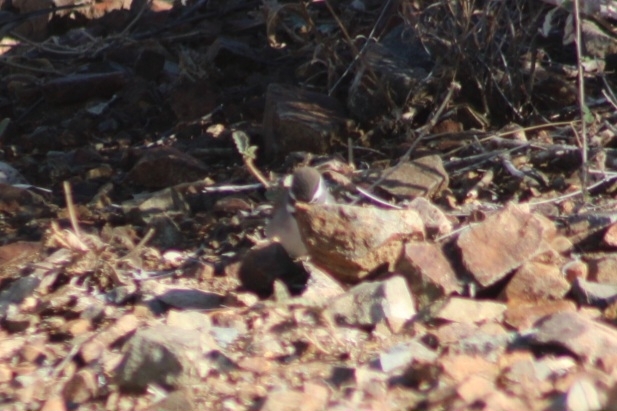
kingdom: Animalia
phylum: Chordata
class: Aves
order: Passeriformes
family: Passerellidae
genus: Amphispiza
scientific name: Amphispiza bilineata
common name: Black-throated sparrow
